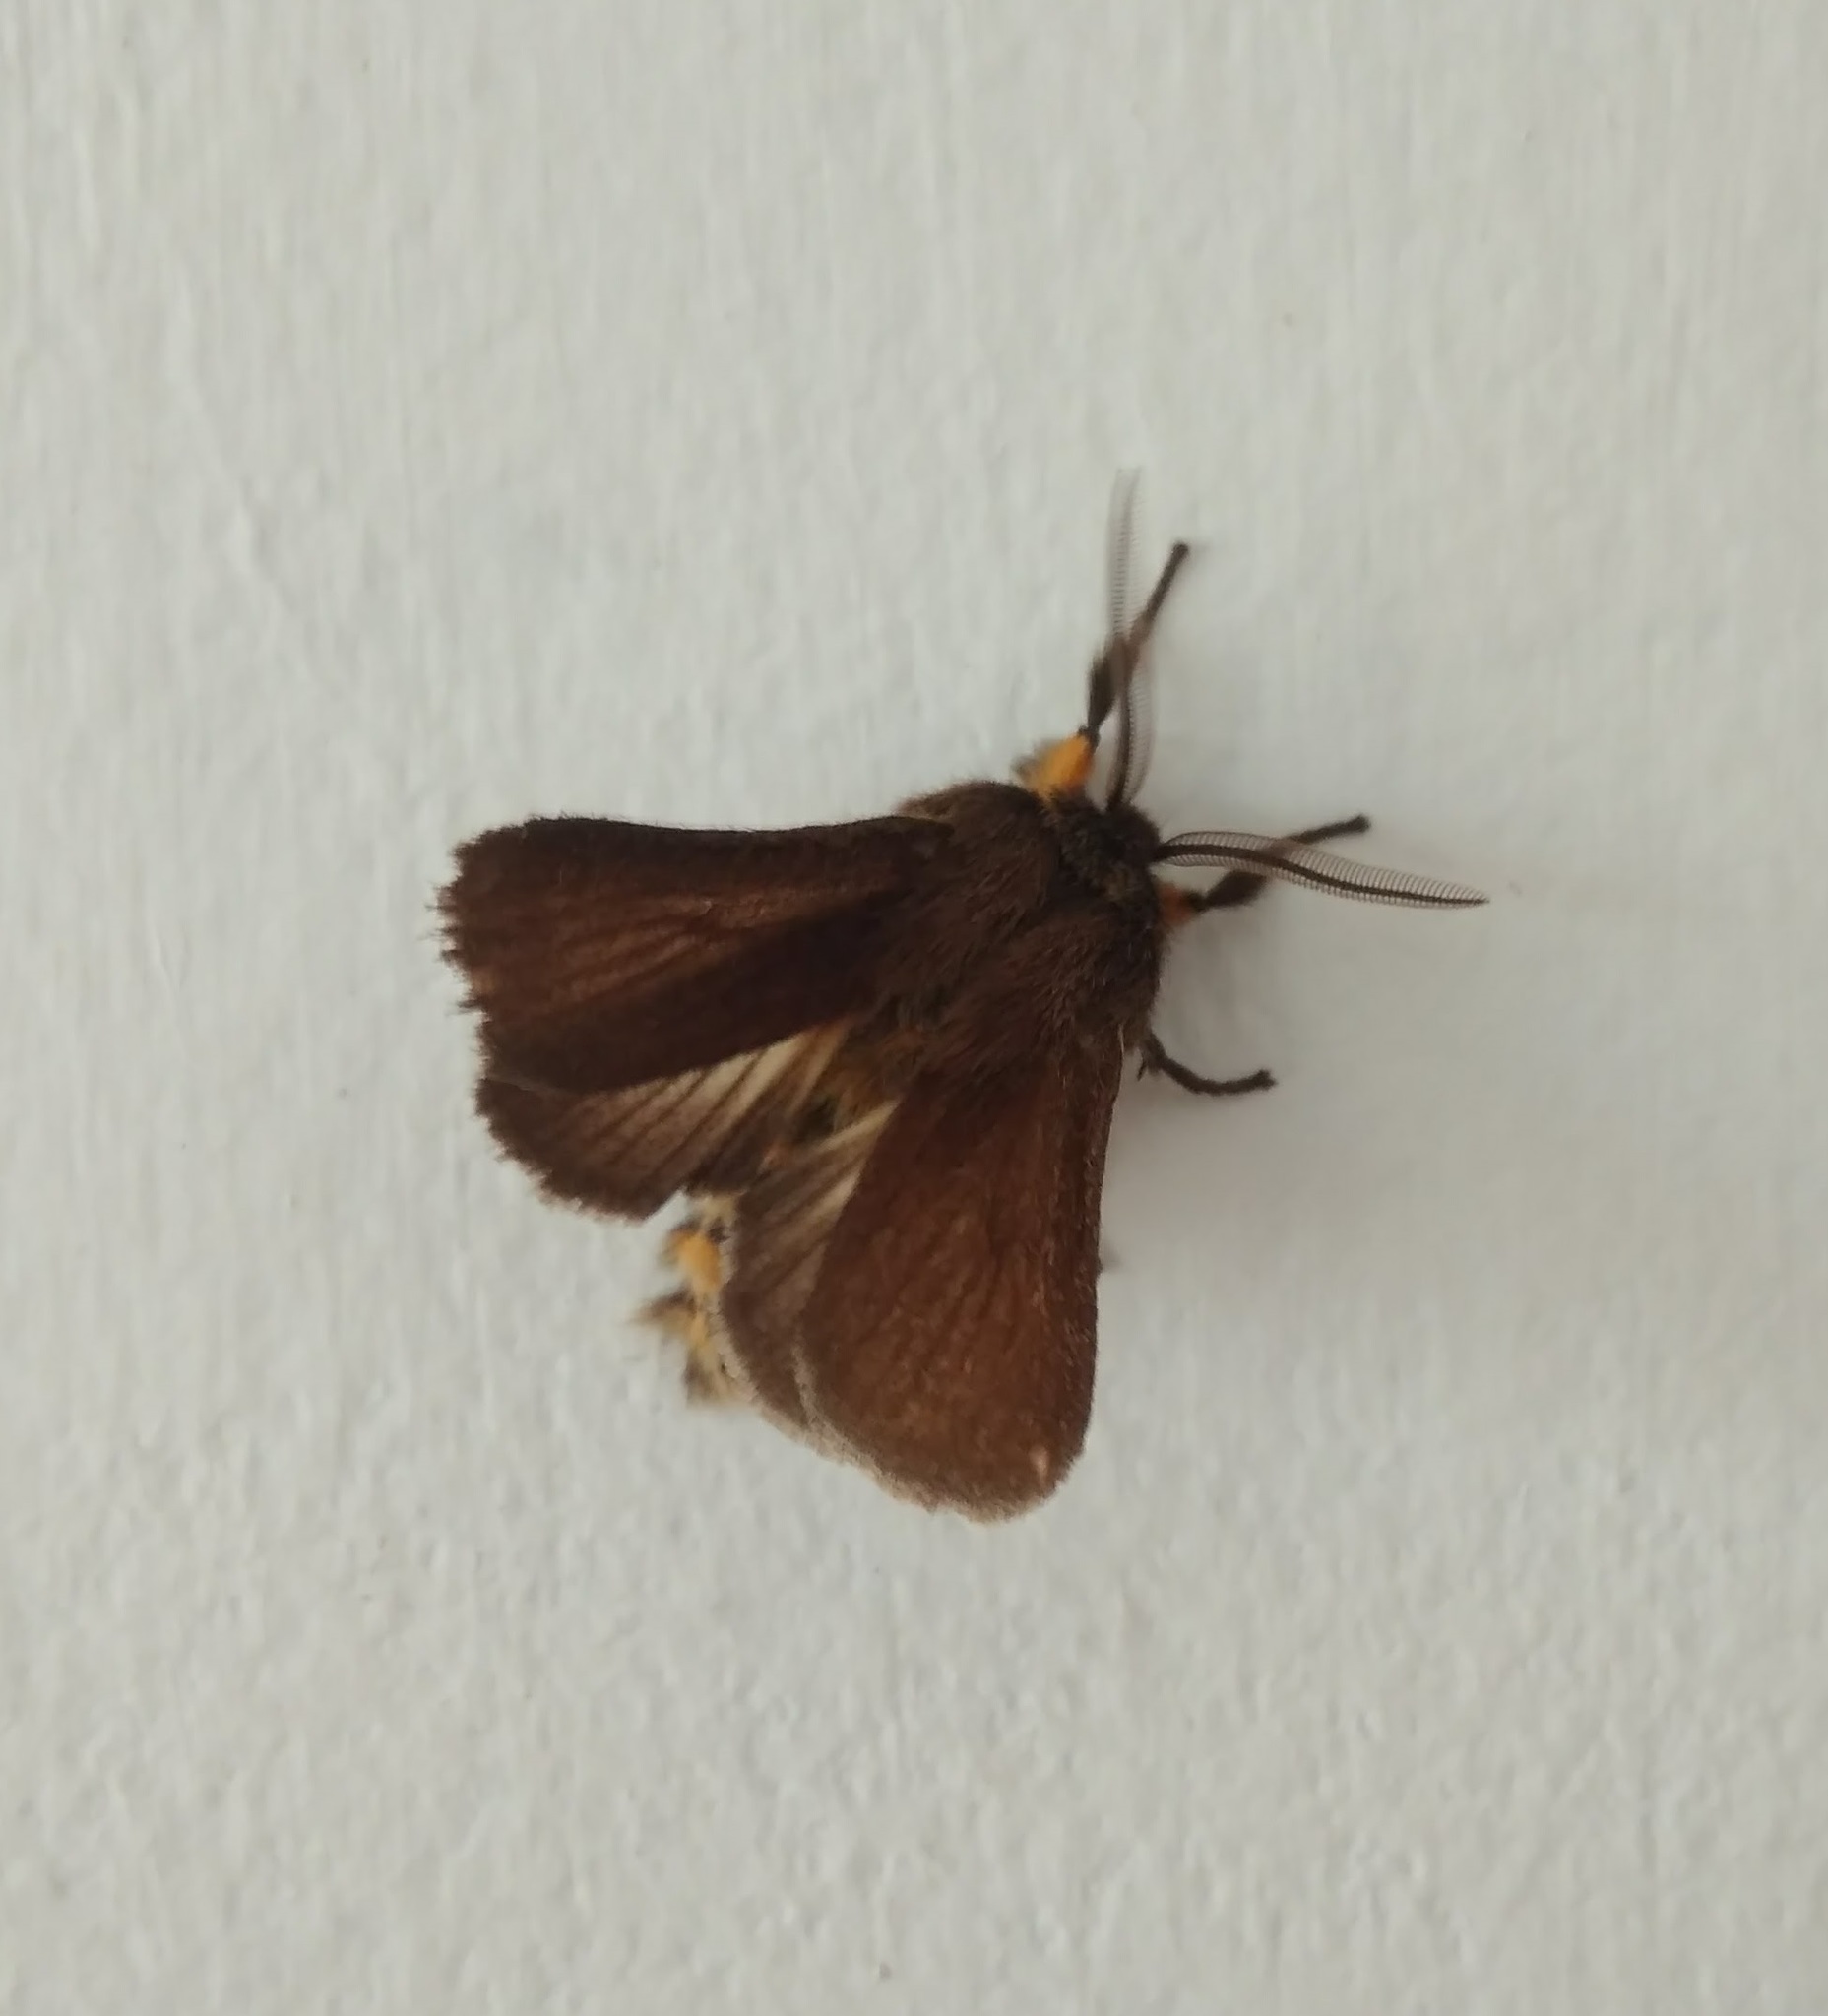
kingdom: Animalia
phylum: Arthropoda
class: Insecta
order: Lepidoptera
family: Erebidae
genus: Chilesia
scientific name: Chilesia
